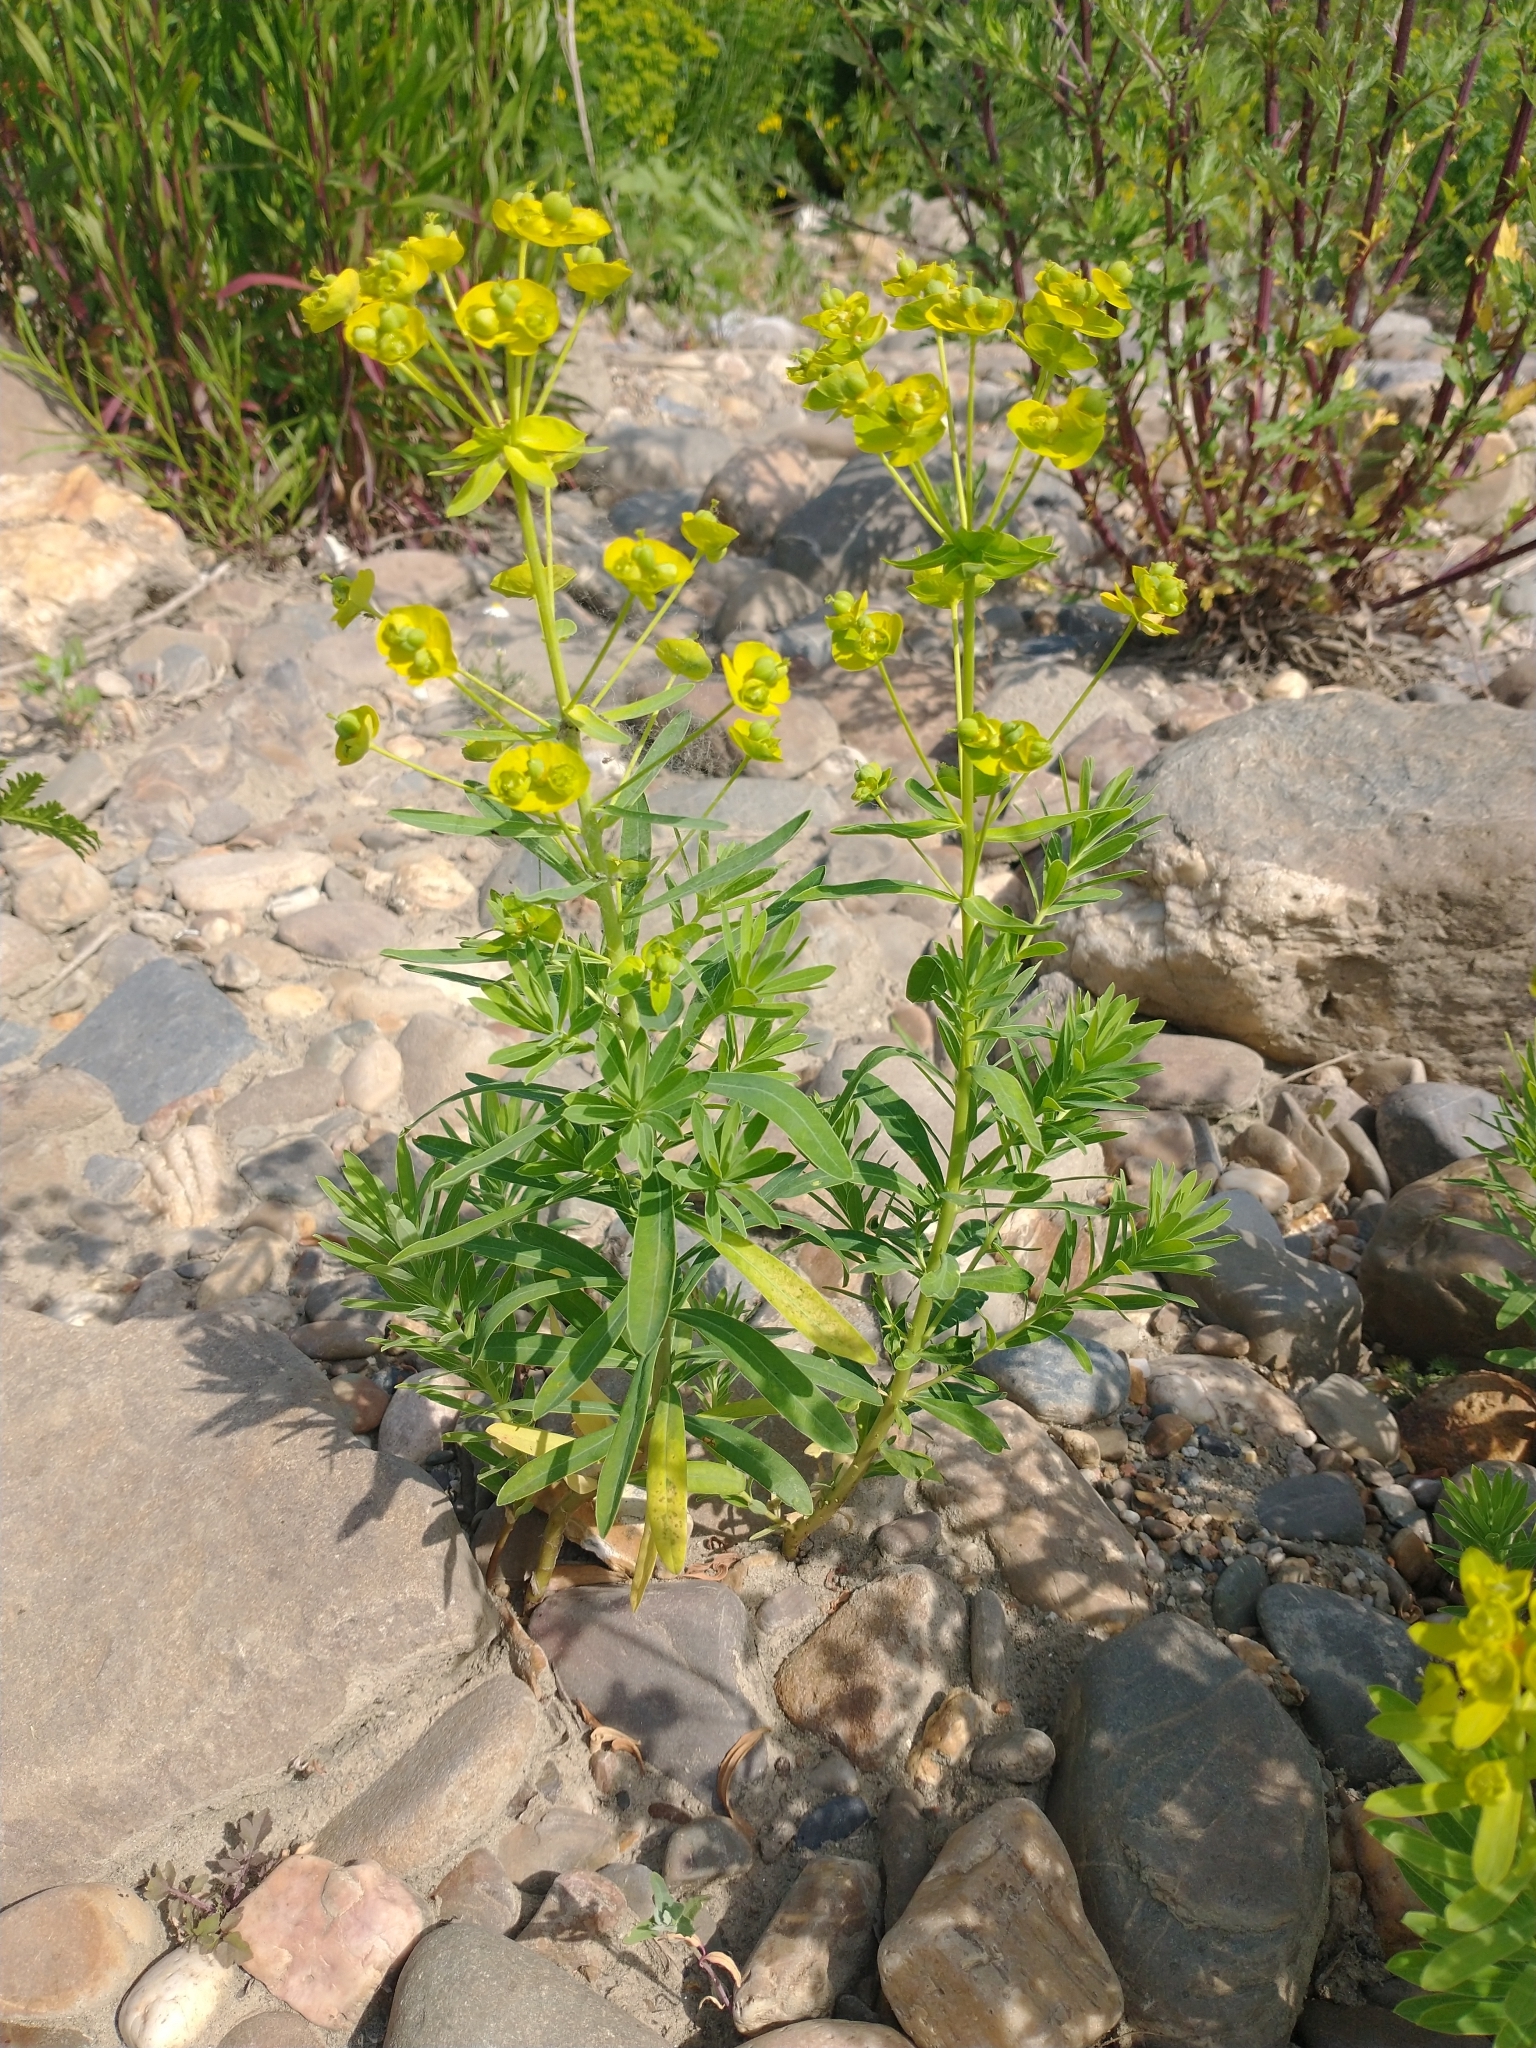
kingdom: Plantae
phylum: Tracheophyta
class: Magnoliopsida
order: Malpighiales
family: Euphorbiaceae
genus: Euphorbia
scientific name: Euphorbia esula
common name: Leafy spurge
